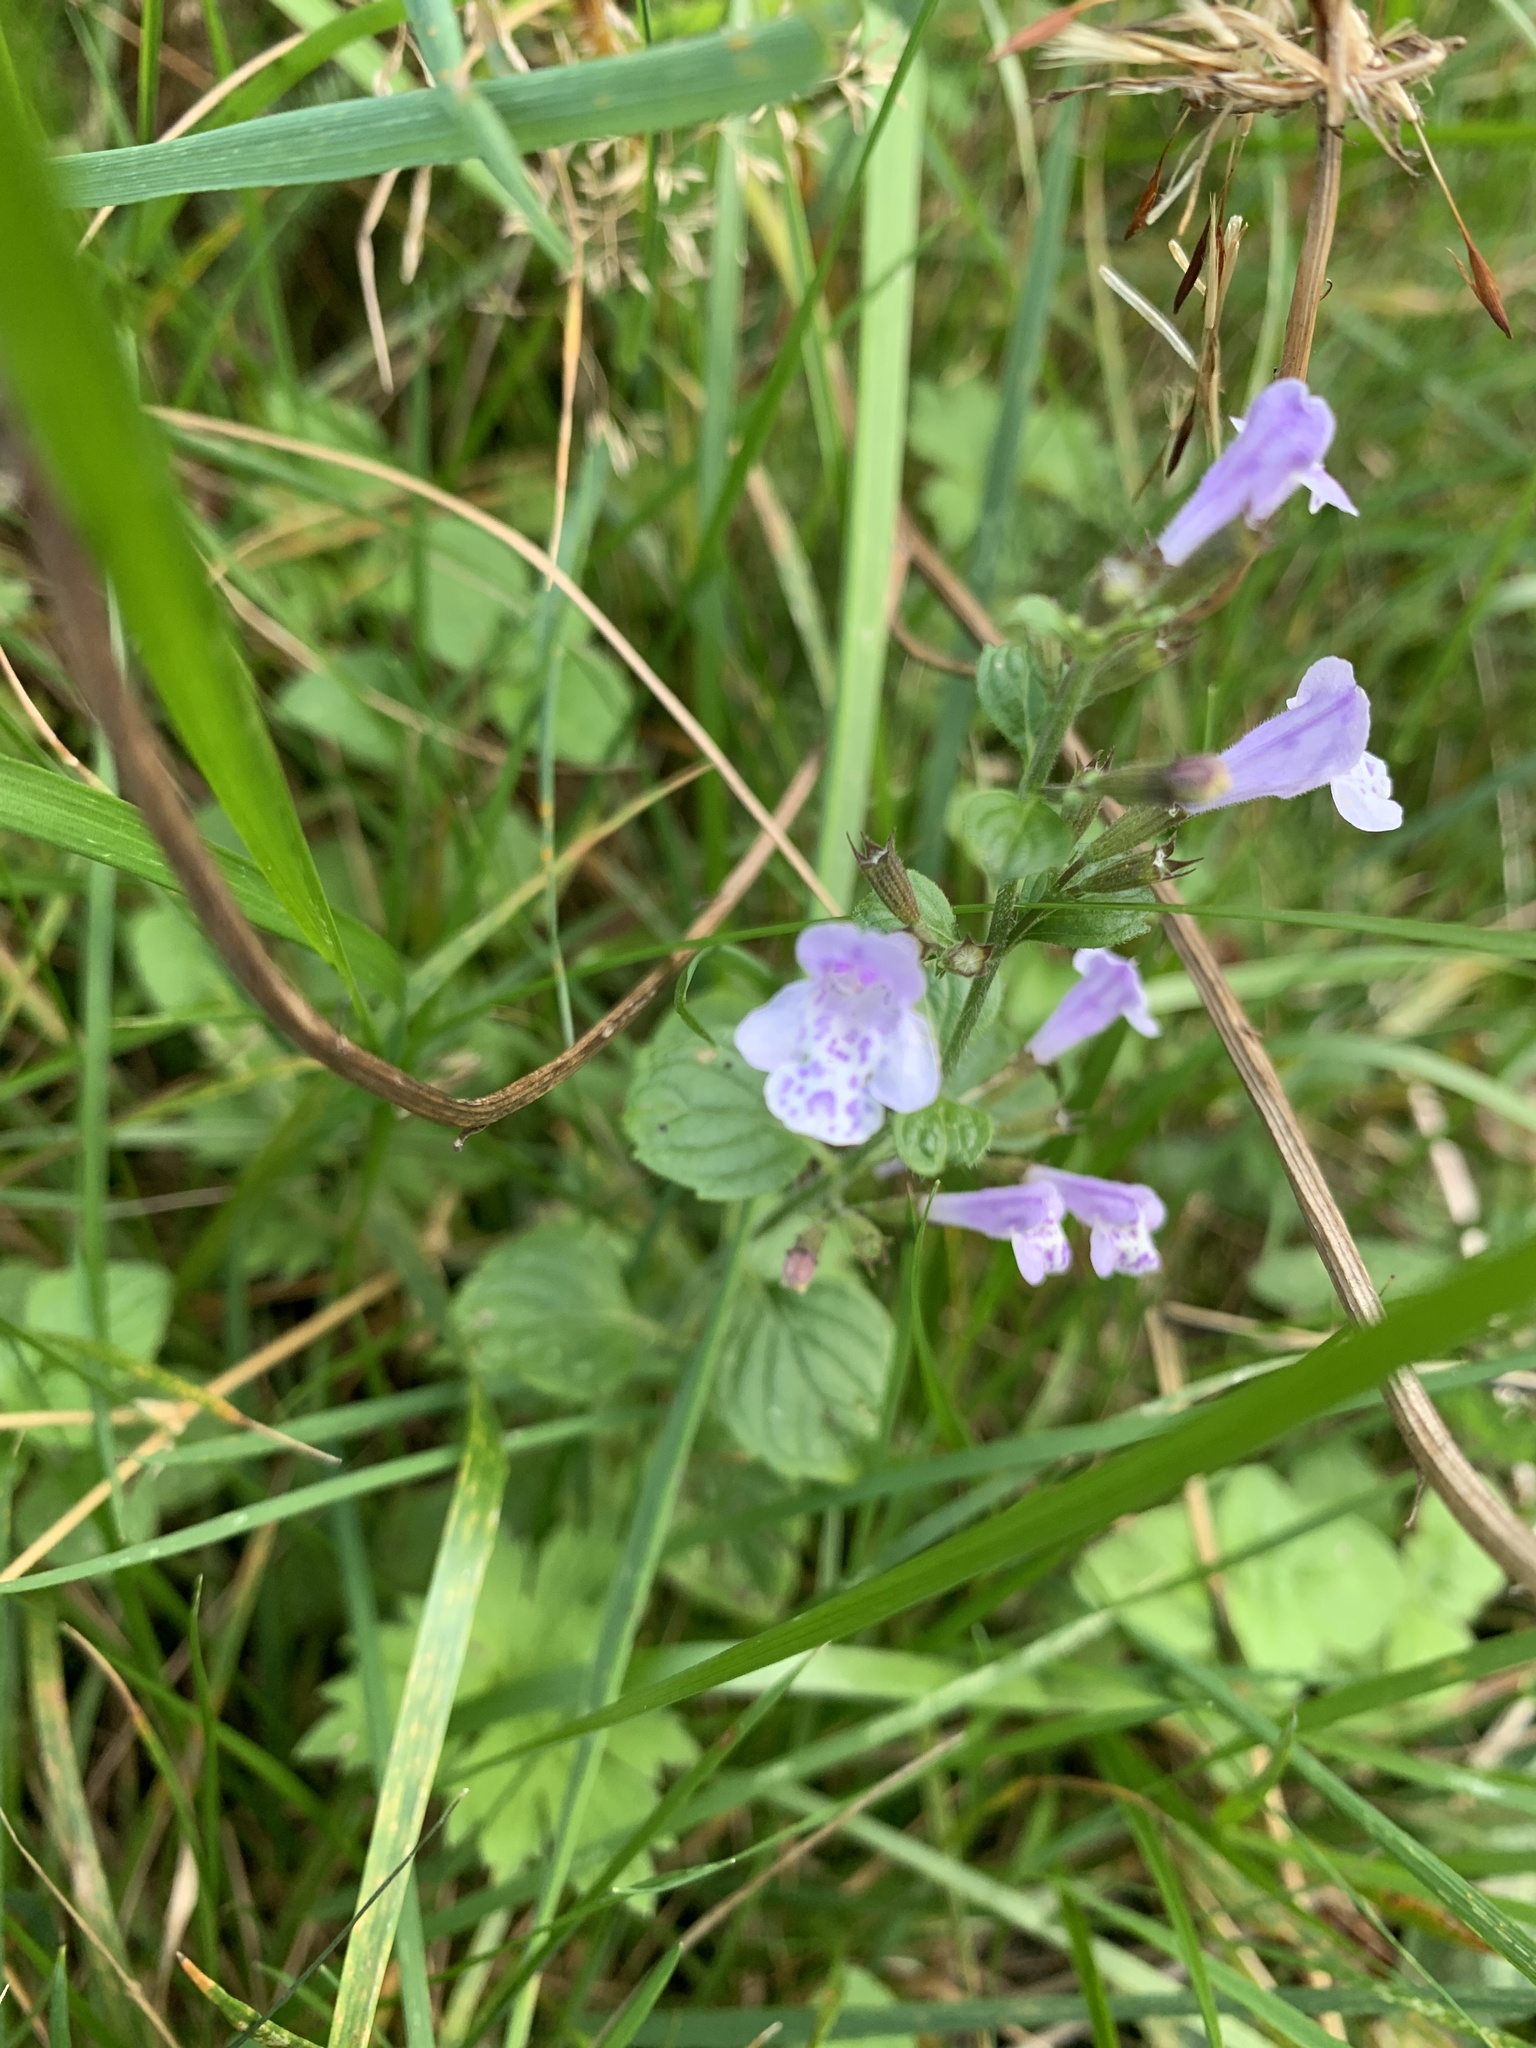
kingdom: Plantae
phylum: Tracheophyta
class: Magnoliopsida
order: Lamiales
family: Lamiaceae
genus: Clinopodium
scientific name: Clinopodium menthifolium
